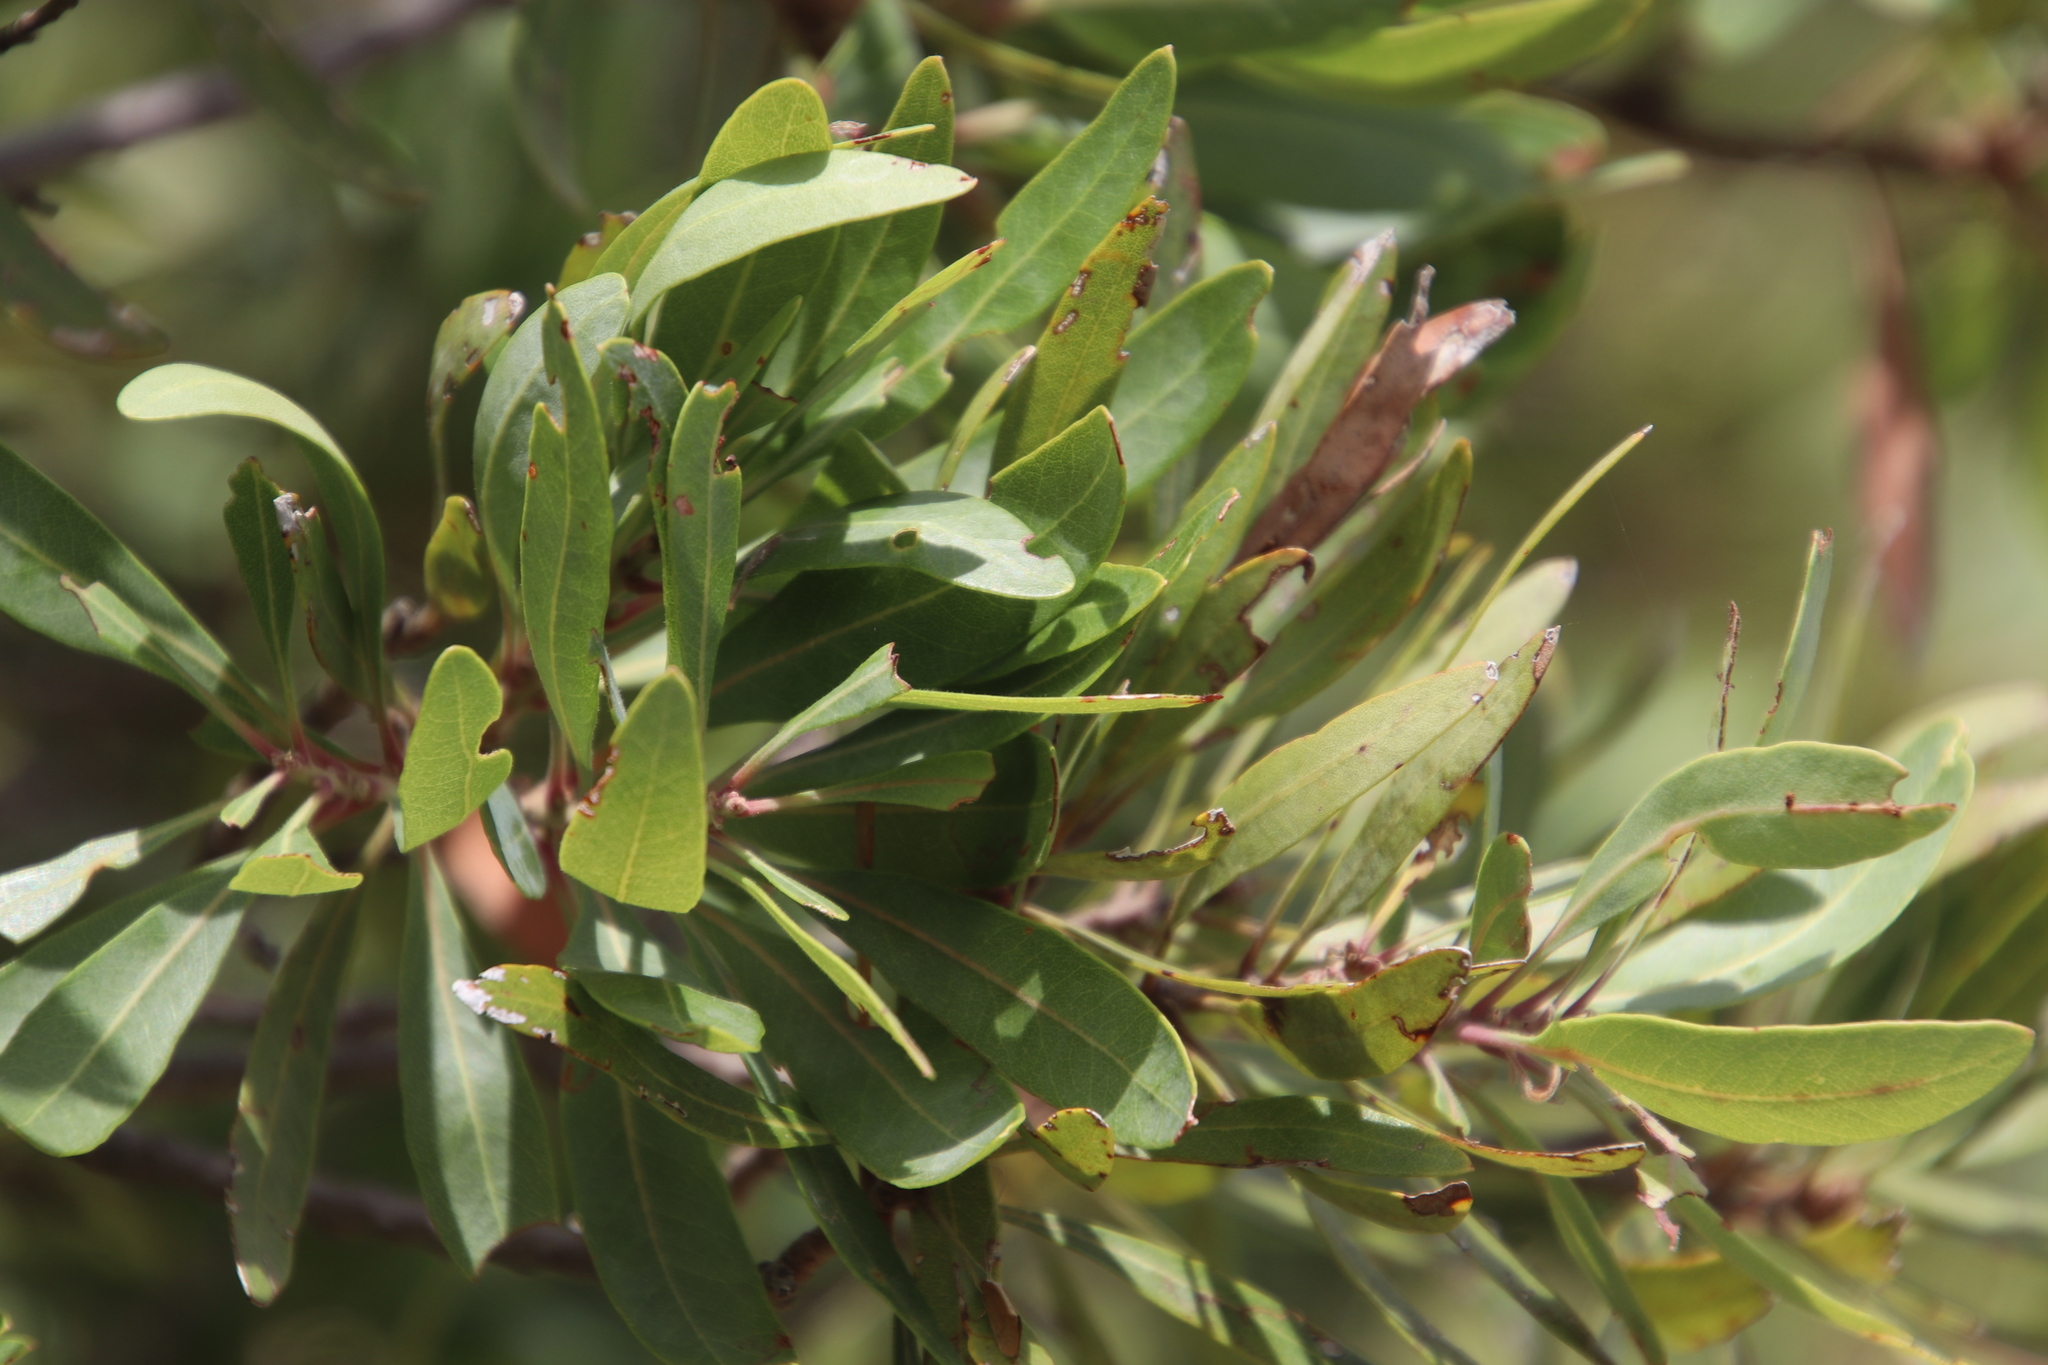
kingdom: Plantae
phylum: Tracheophyta
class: Magnoliopsida
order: Asterales
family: Asteraceae
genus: Brachylaena
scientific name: Brachylaena neriifolia
